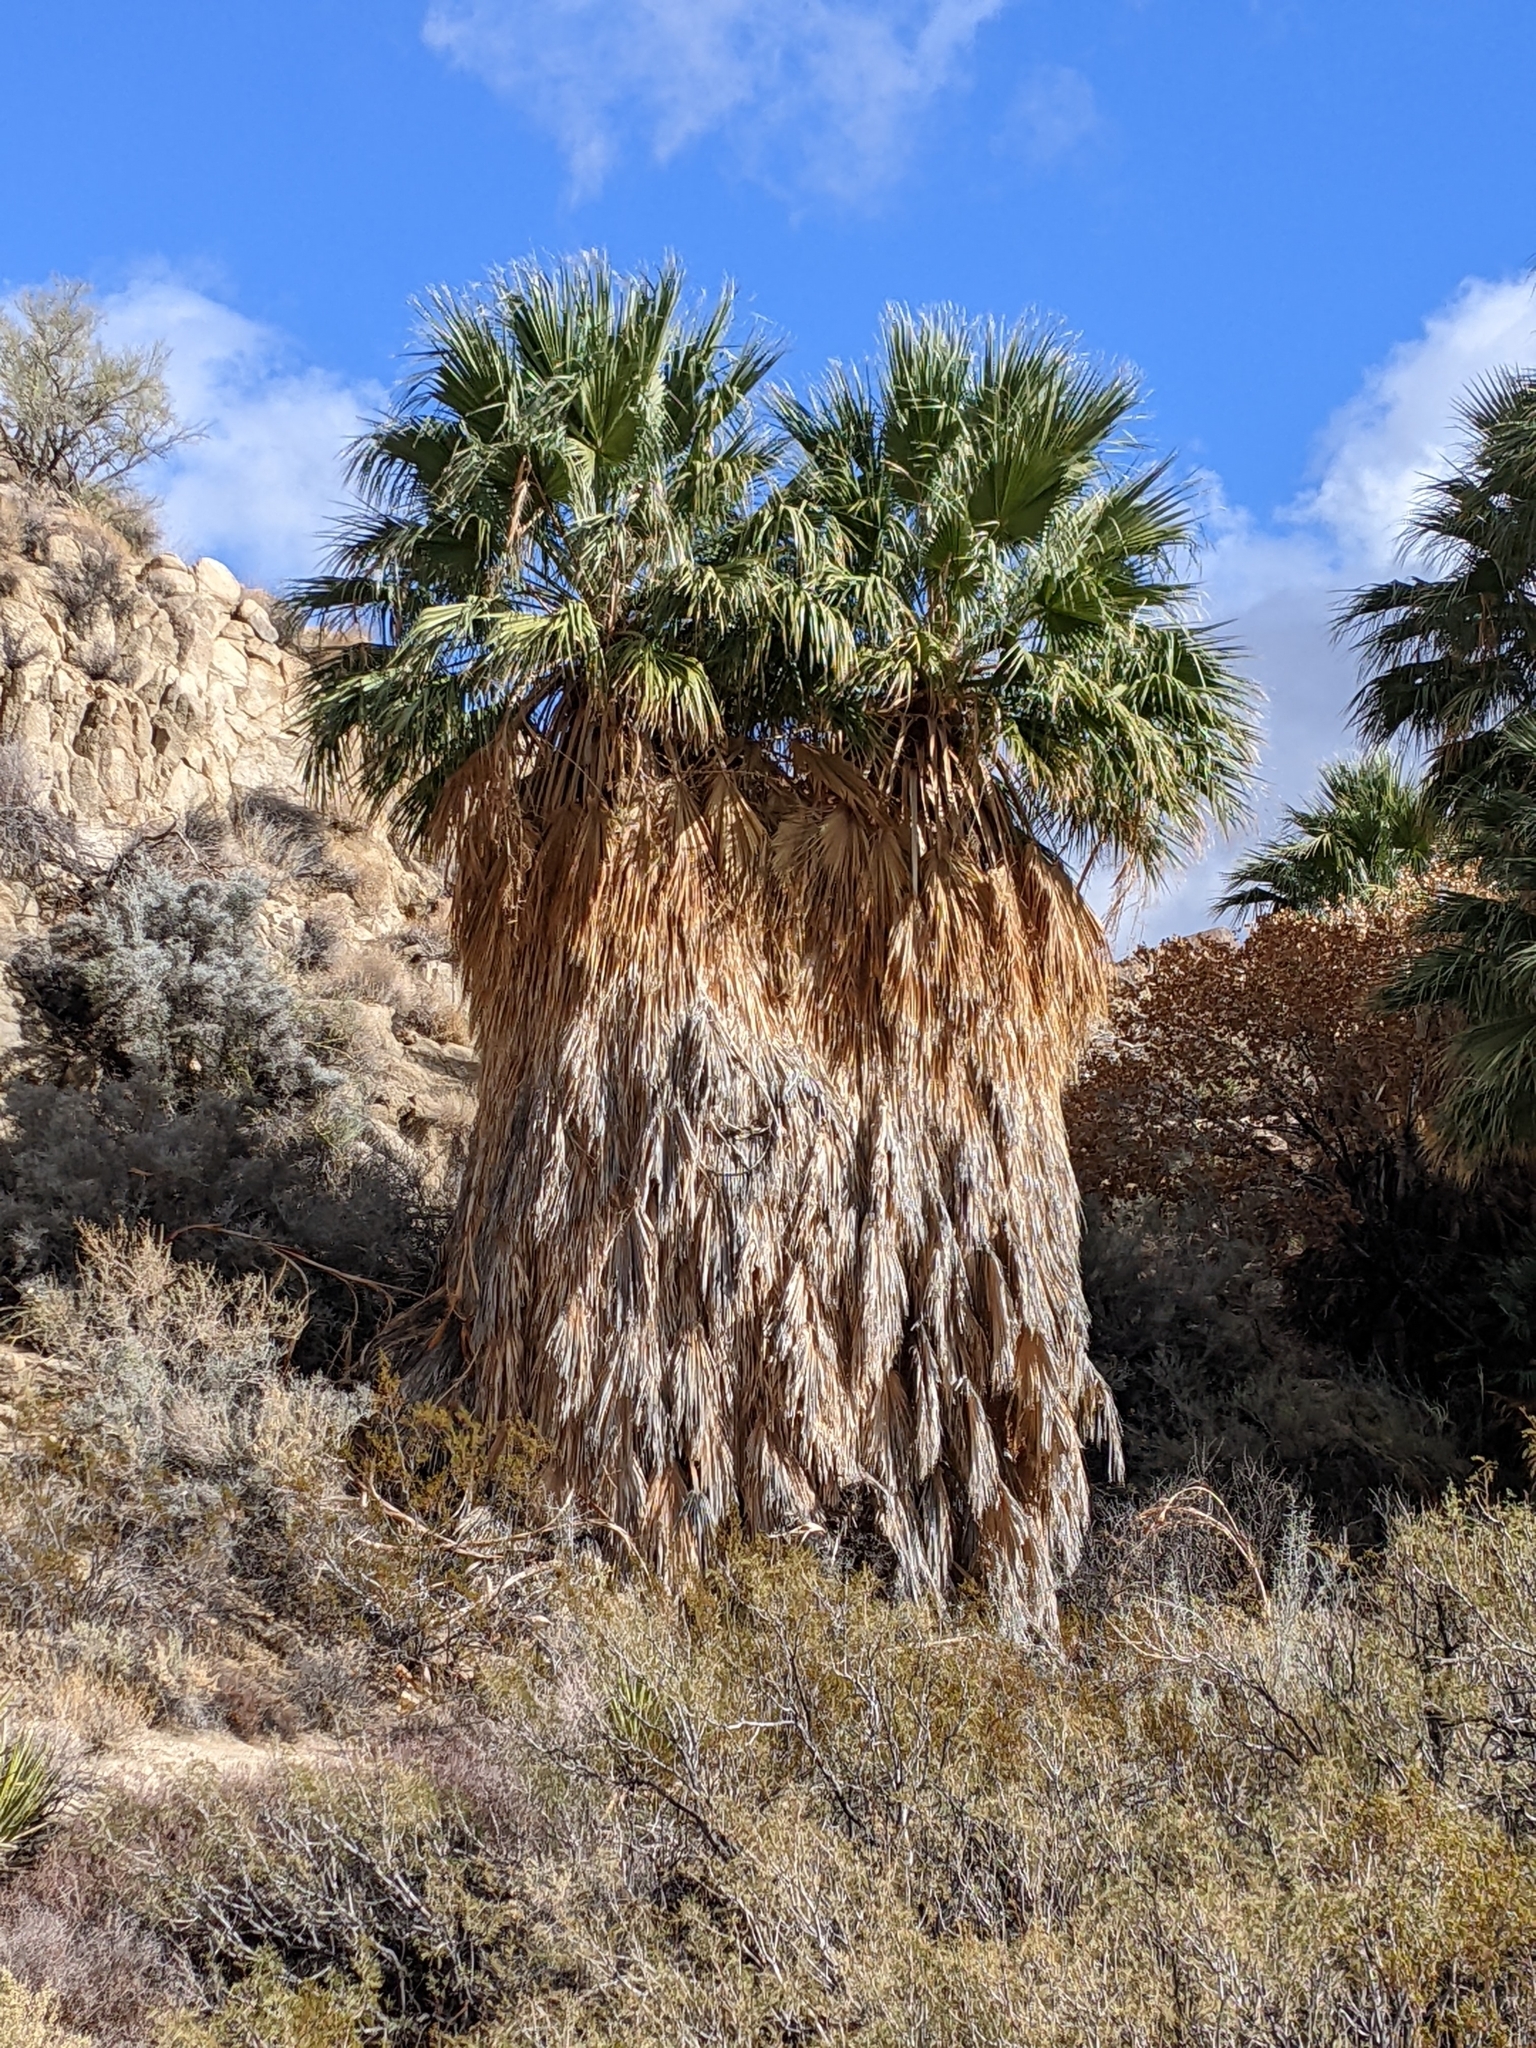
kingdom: Plantae
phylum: Tracheophyta
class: Liliopsida
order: Arecales
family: Arecaceae
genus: Washingtonia
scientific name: Washingtonia filifera
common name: California fan palm
